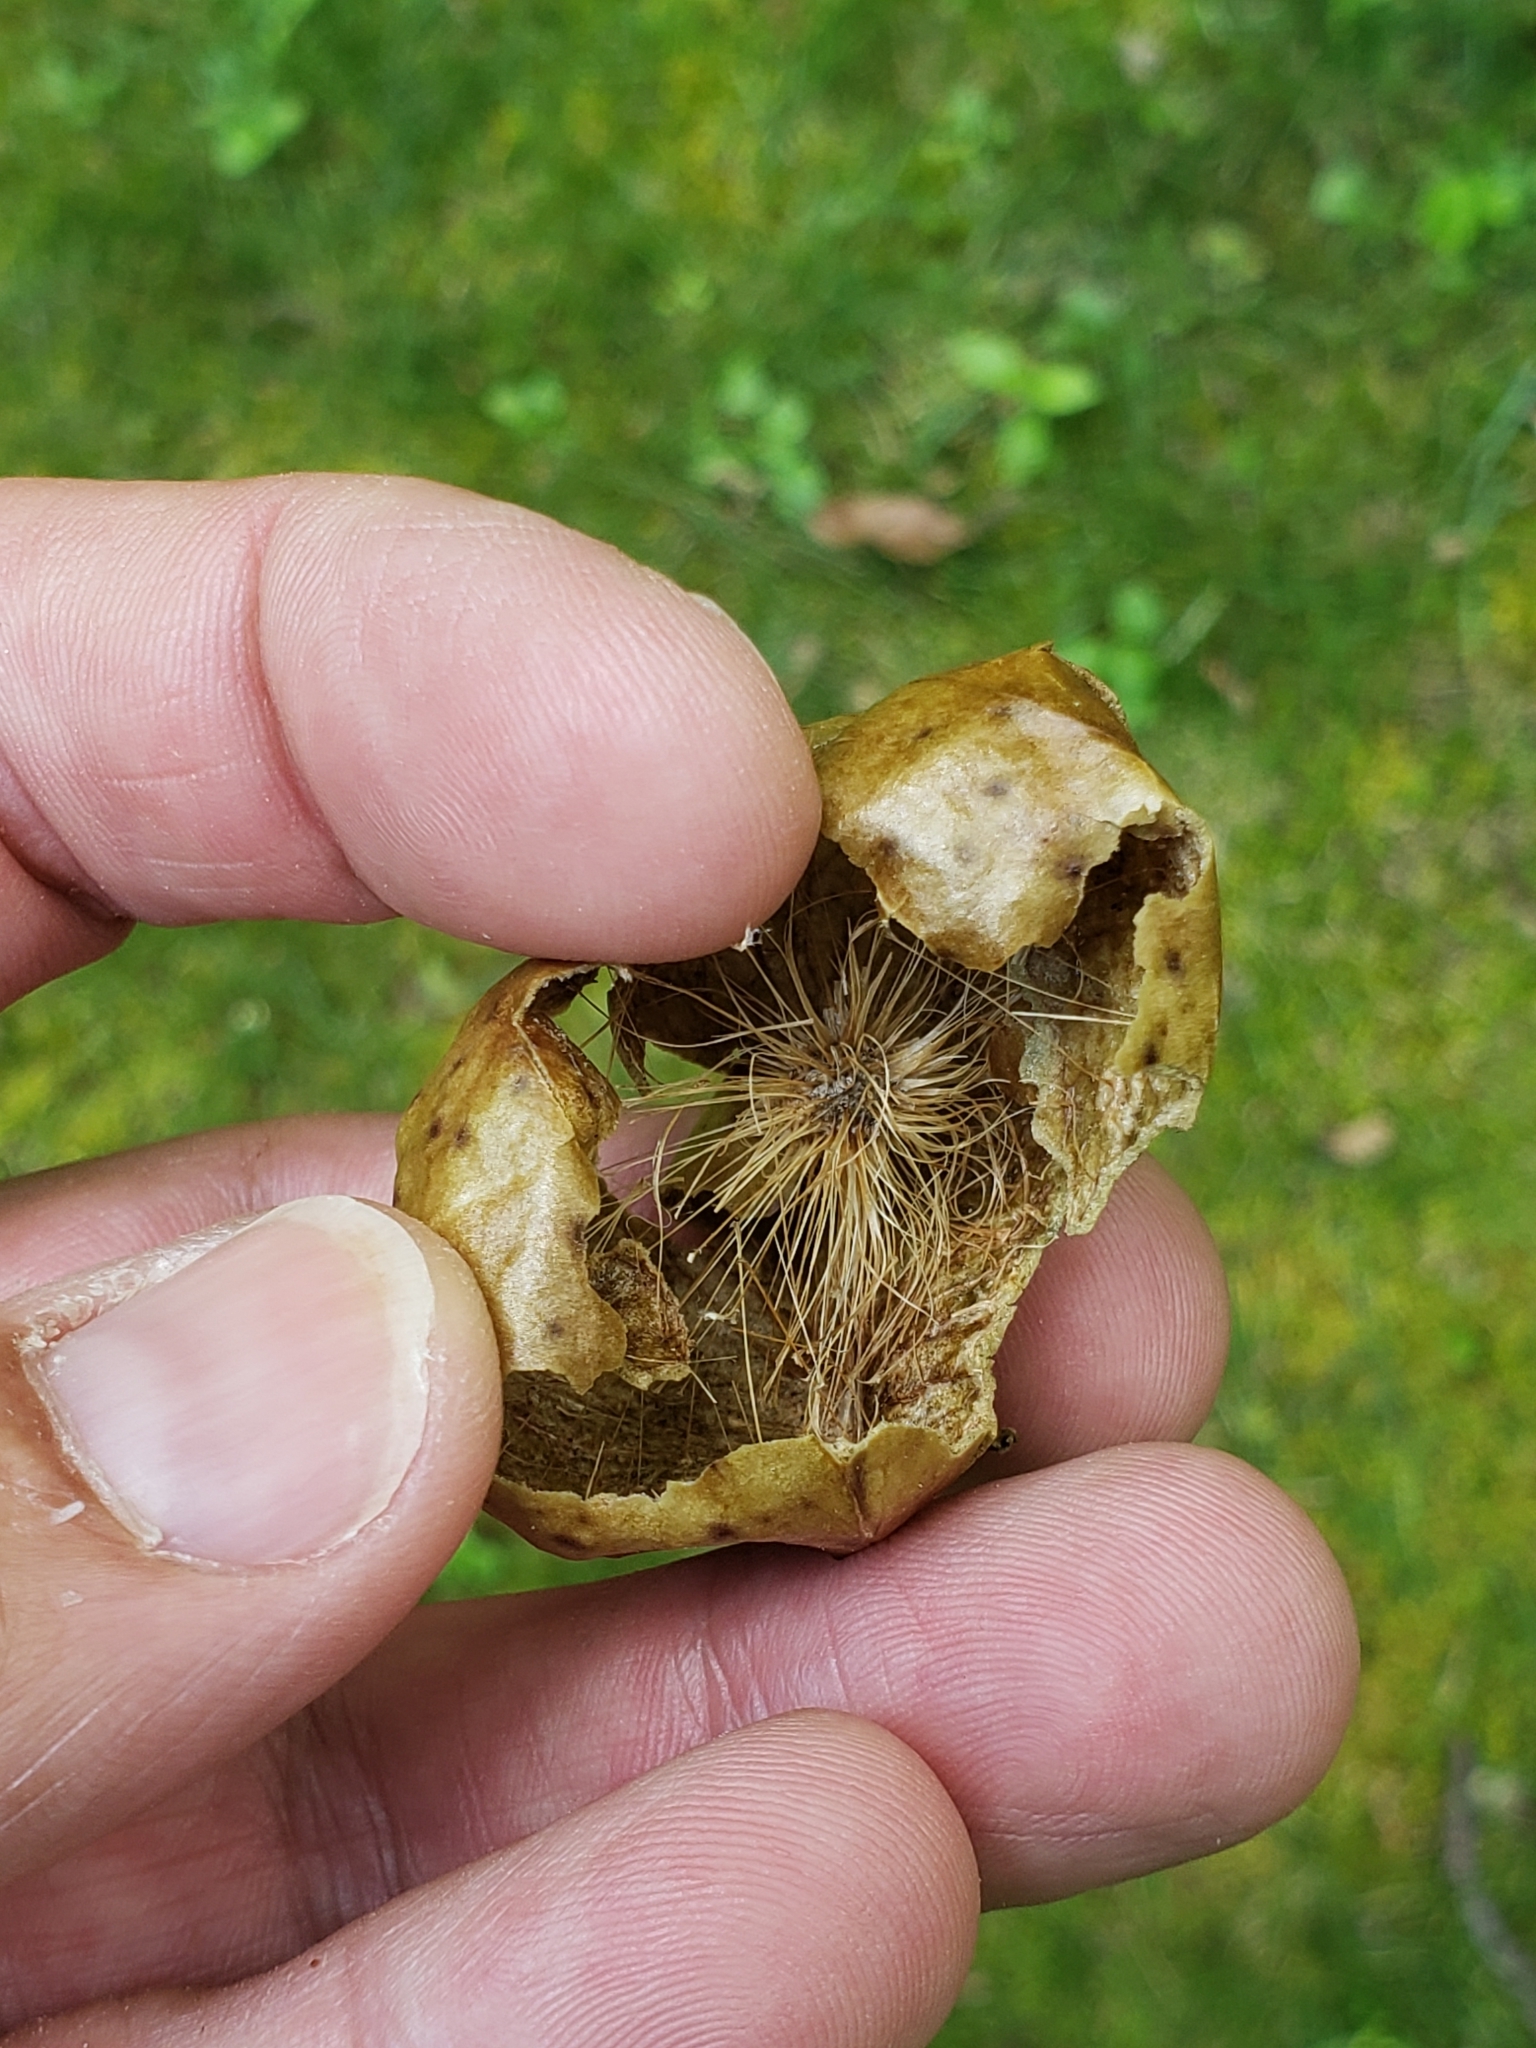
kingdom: Animalia
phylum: Arthropoda
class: Insecta
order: Hymenoptera
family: Cynipidae
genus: Amphibolips
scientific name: Amphibolips
